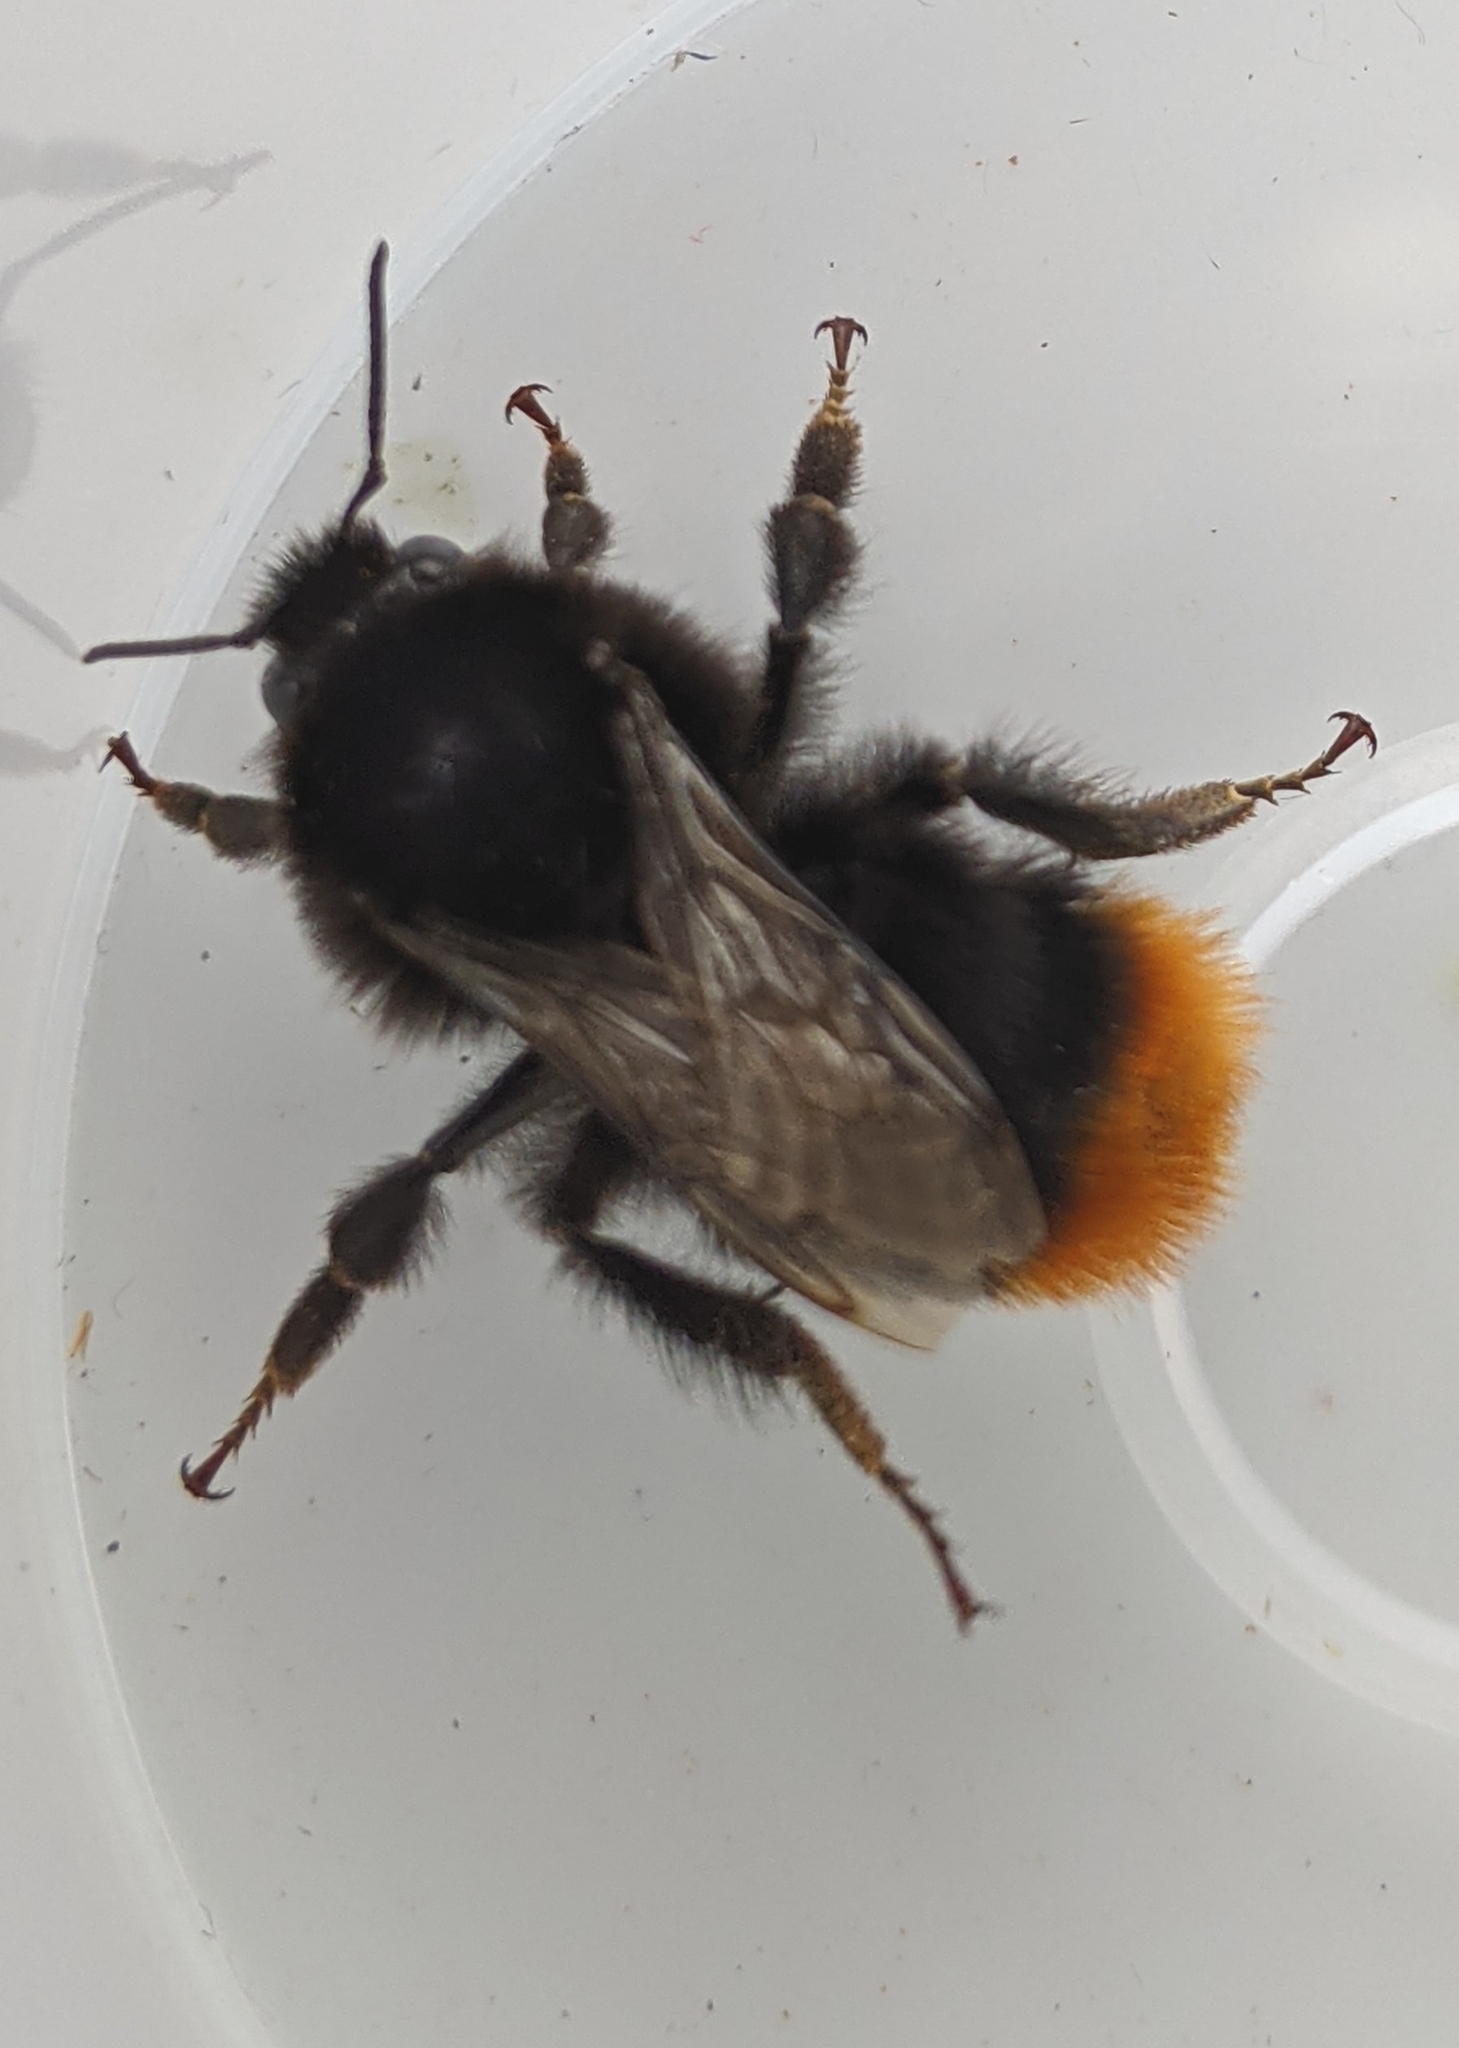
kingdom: Animalia
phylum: Arthropoda
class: Insecta
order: Hymenoptera
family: Apidae
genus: Bombus
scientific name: Bombus lapidarius
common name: Large red-tailed humble-bee
